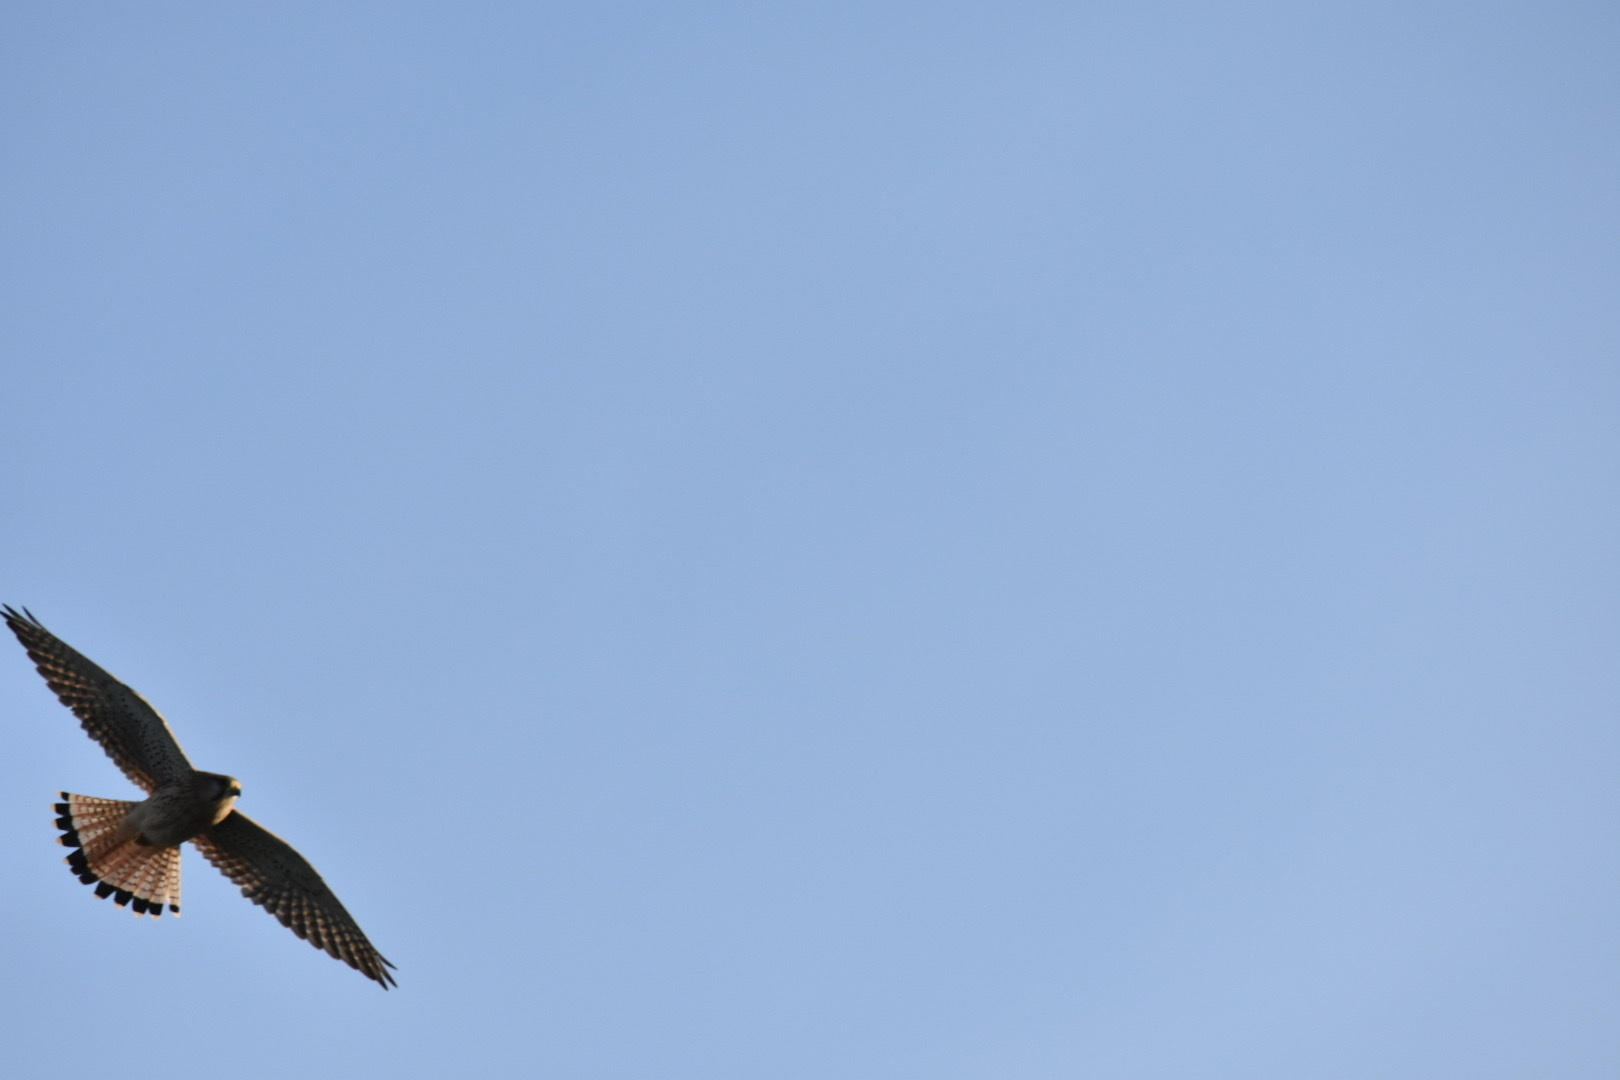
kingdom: Animalia
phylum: Chordata
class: Aves
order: Falconiformes
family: Falconidae
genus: Falco
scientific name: Falco tinnunculus
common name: Common kestrel
